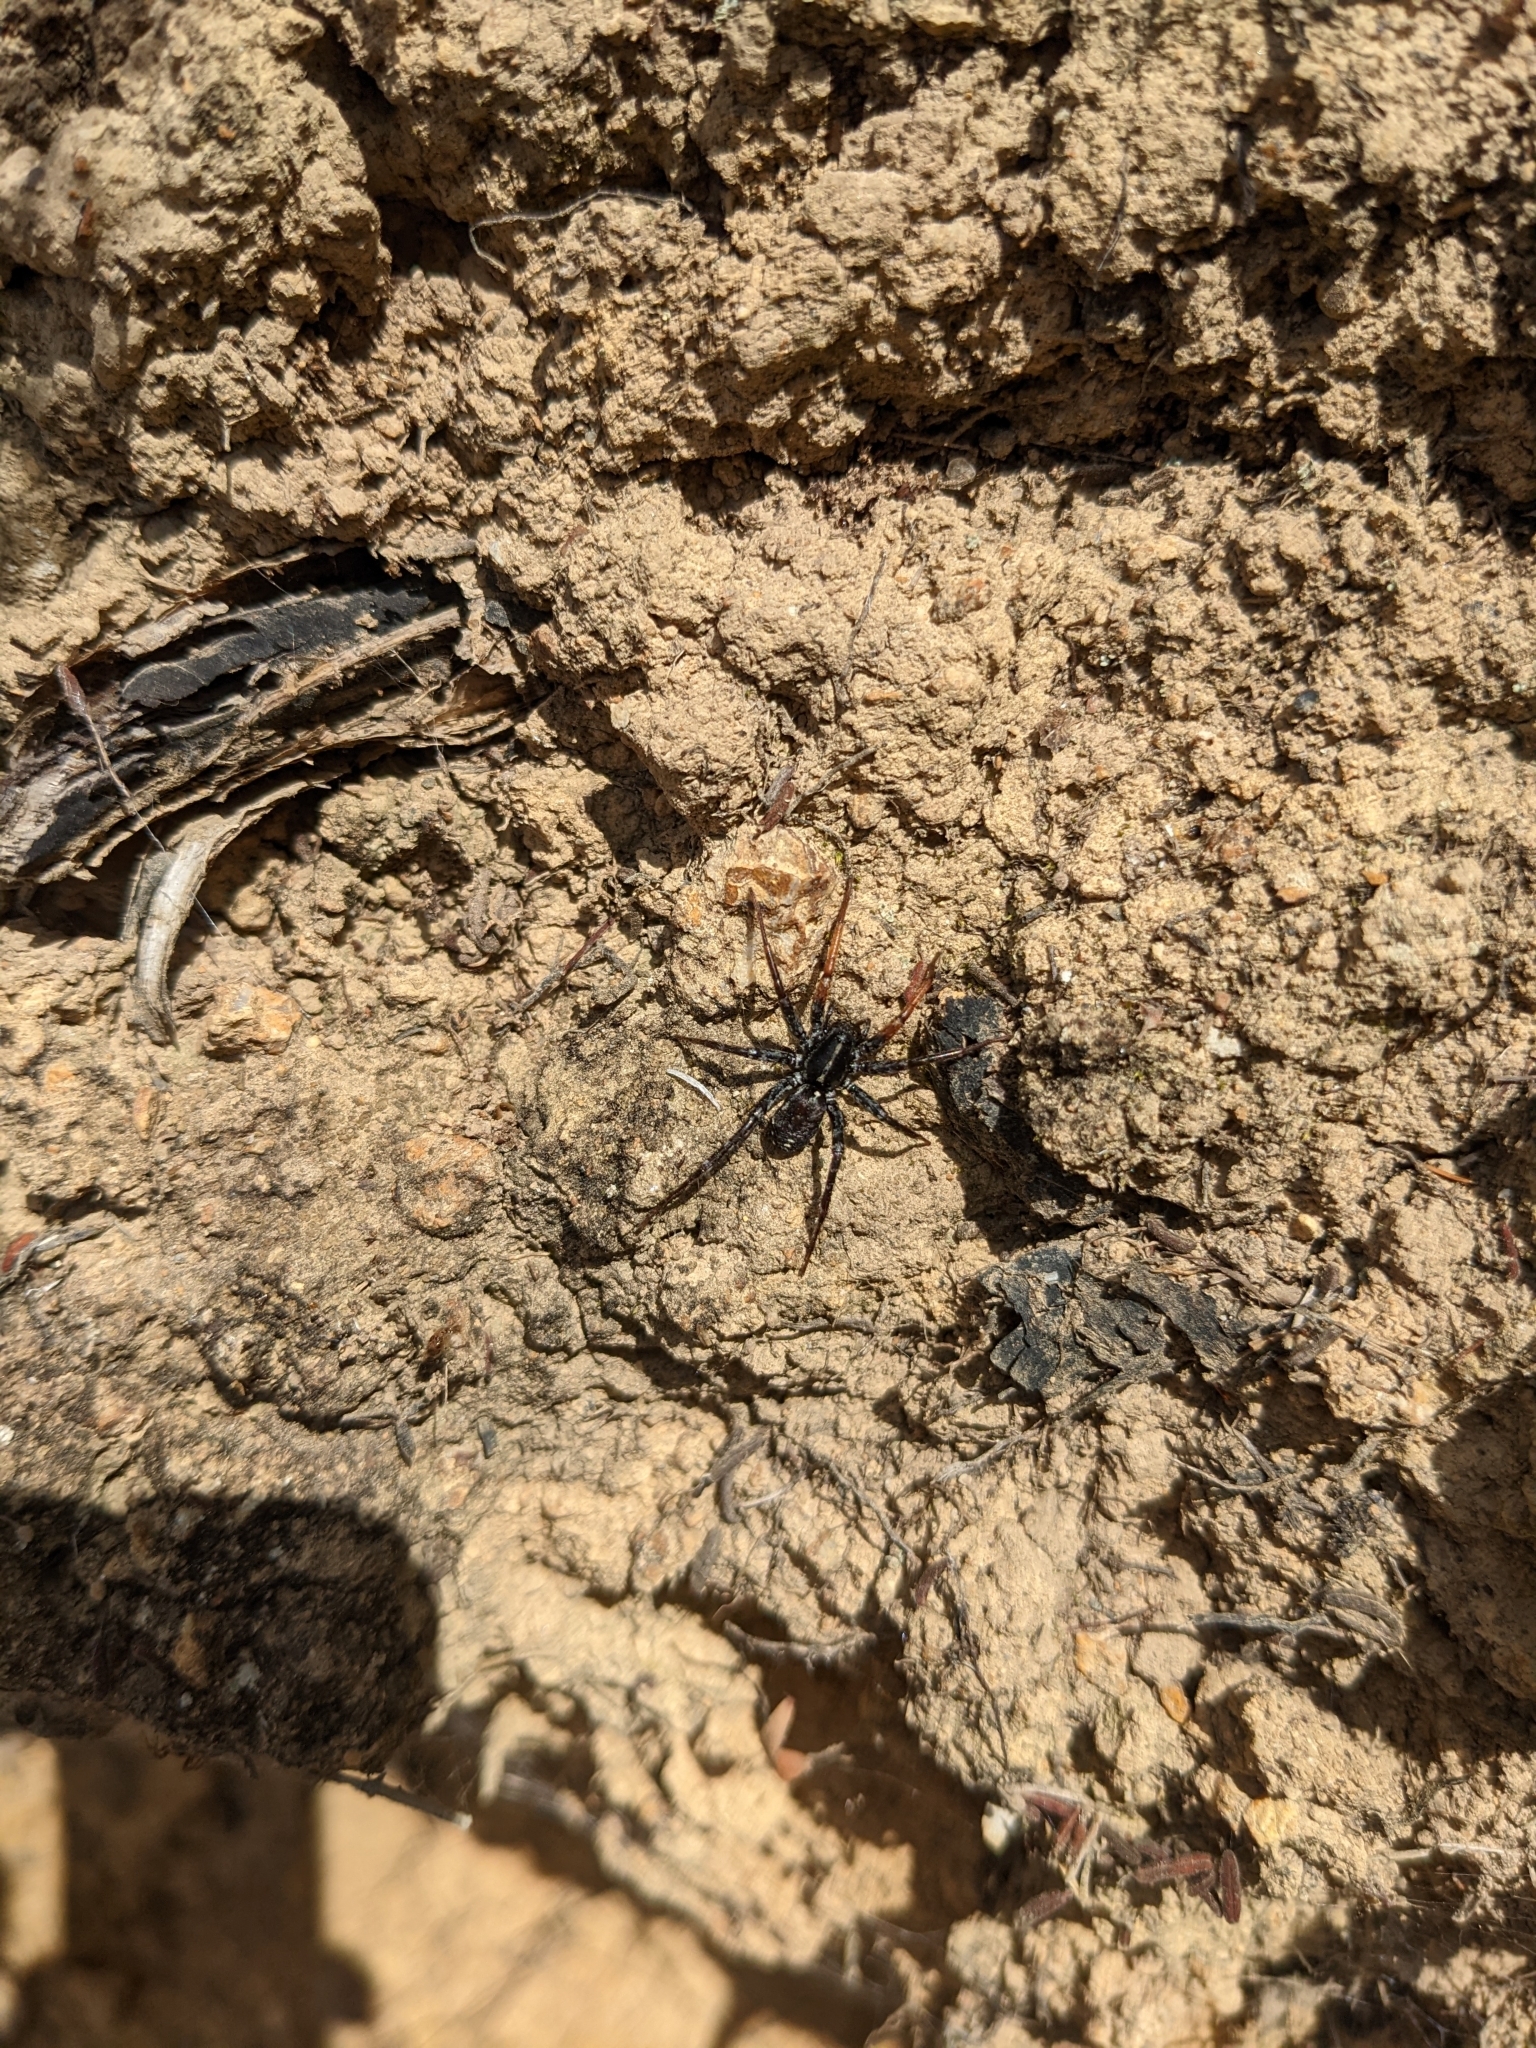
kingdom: Animalia
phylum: Arthropoda
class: Arachnida
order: Araneae
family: Corinnidae
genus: Nyssus
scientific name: Nyssus coloripes
